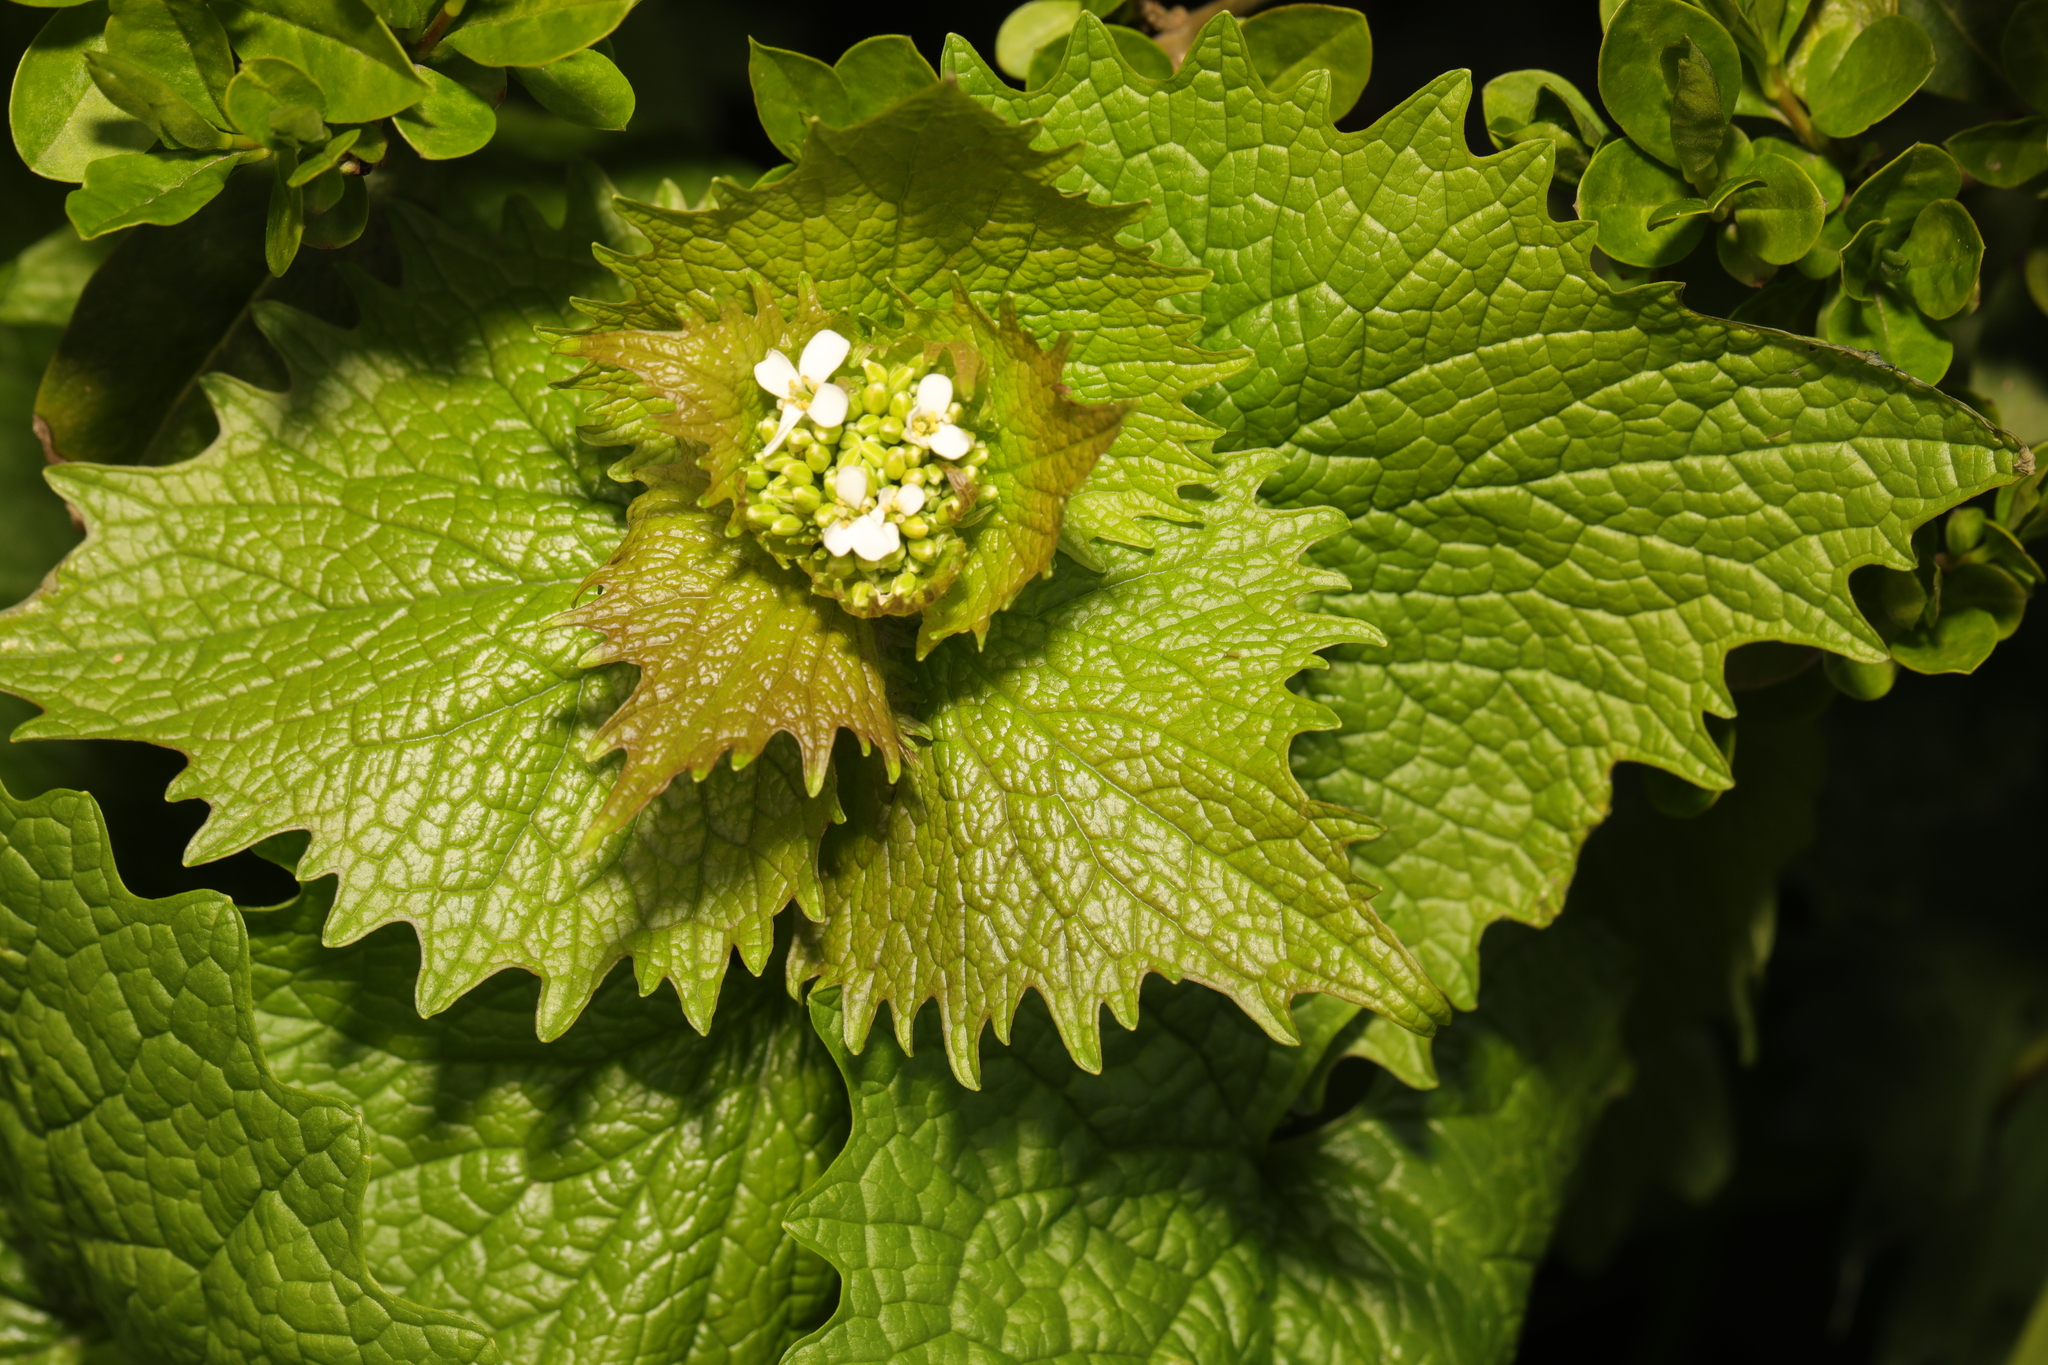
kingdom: Plantae
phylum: Tracheophyta
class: Magnoliopsida
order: Brassicales
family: Brassicaceae
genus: Alliaria
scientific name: Alliaria petiolata
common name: Garlic mustard
